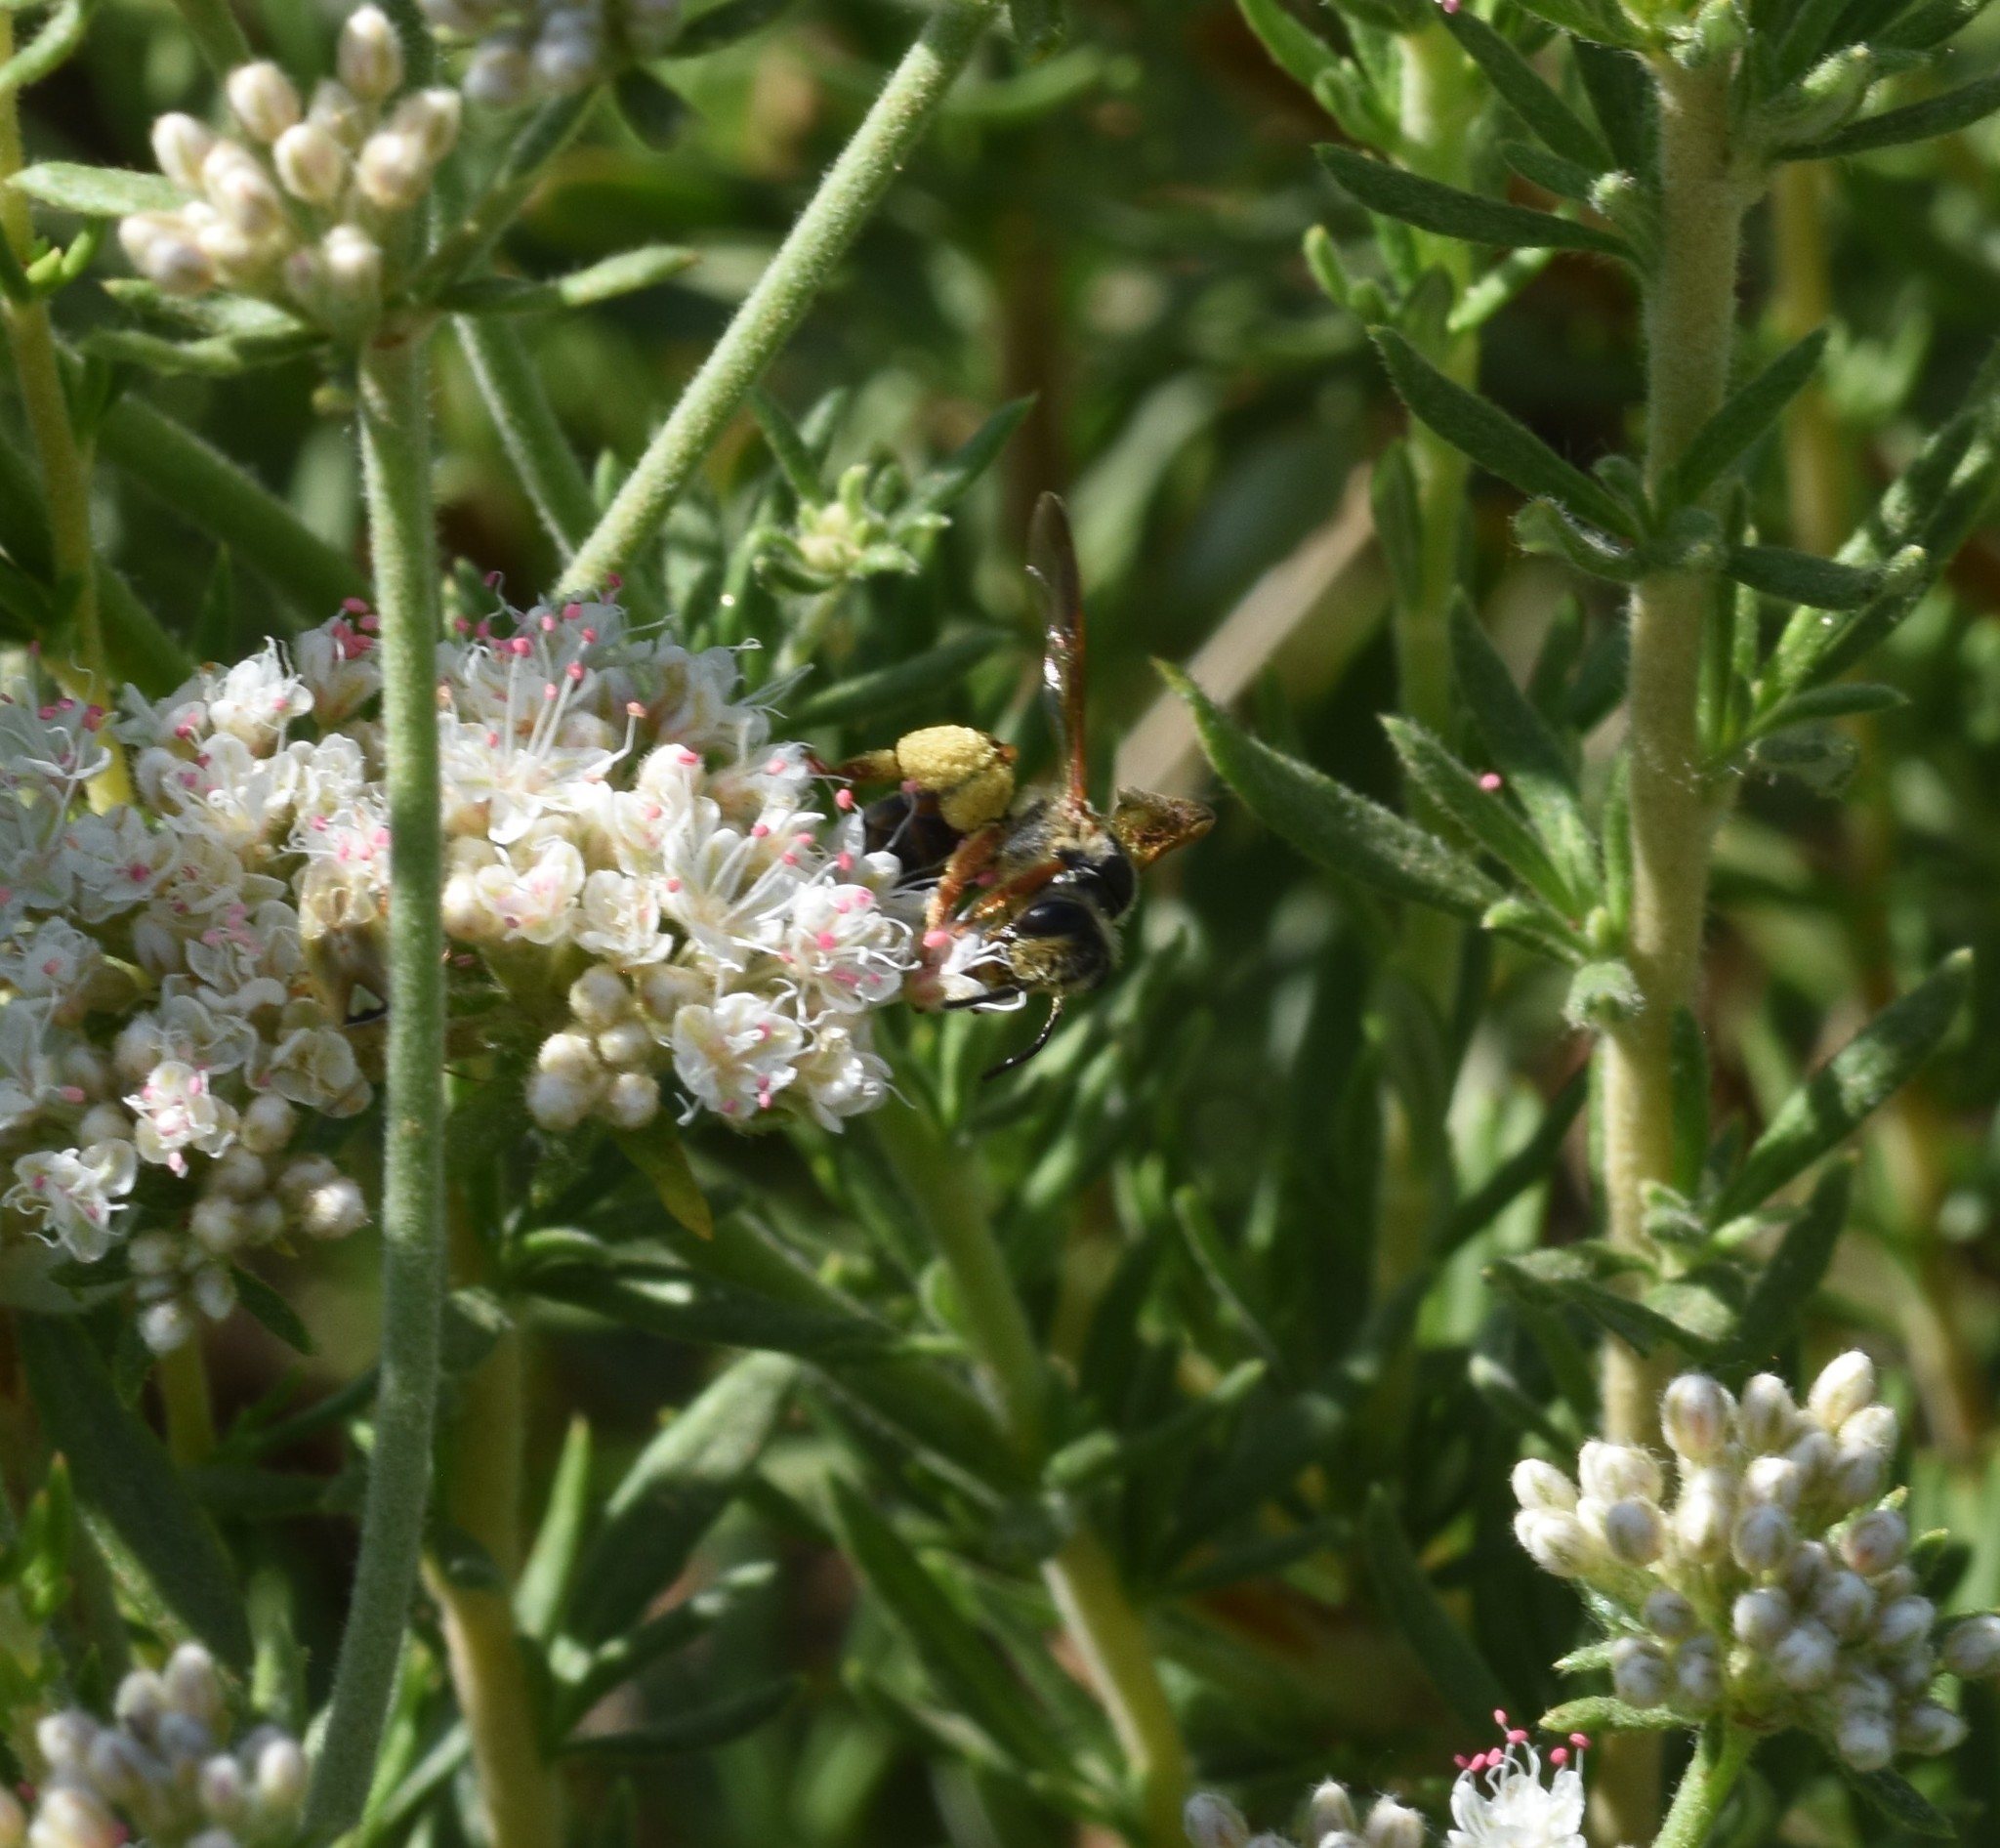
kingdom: Animalia
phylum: Arthropoda
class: Insecta
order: Hymenoptera
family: Andrenidae
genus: Andrena
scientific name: Andrena prunorum
